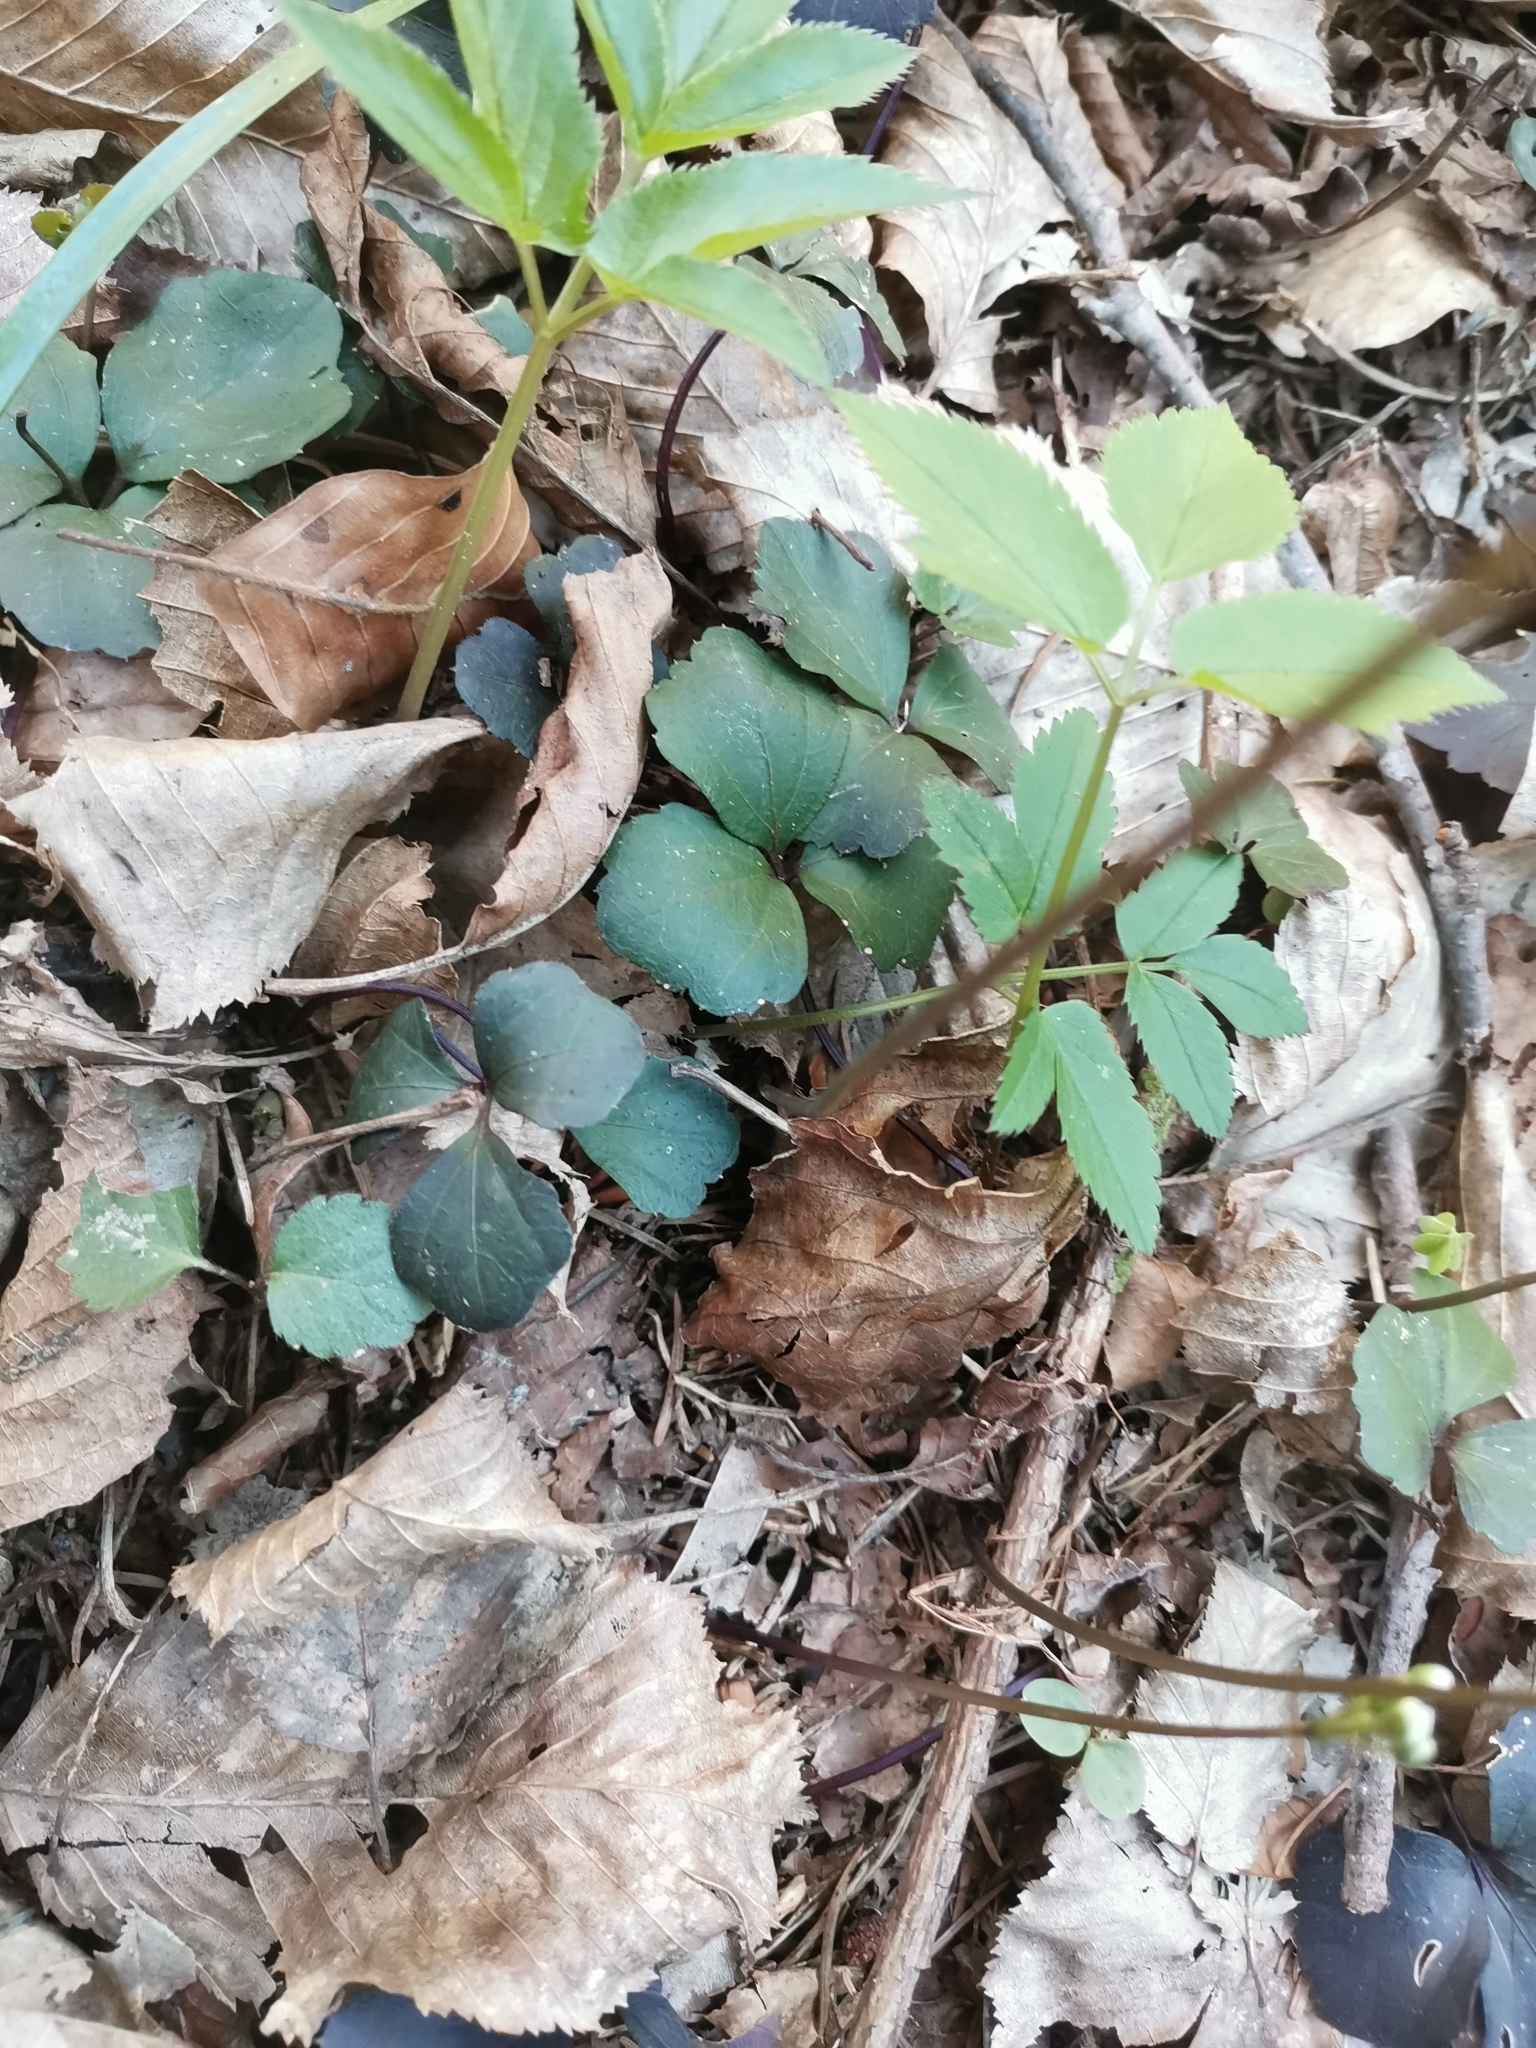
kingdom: Plantae
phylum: Tracheophyta
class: Magnoliopsida
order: Brassicales
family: Brassicaceae
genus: Cardamine
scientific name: Cardamine trifolia
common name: Trefoil cress
